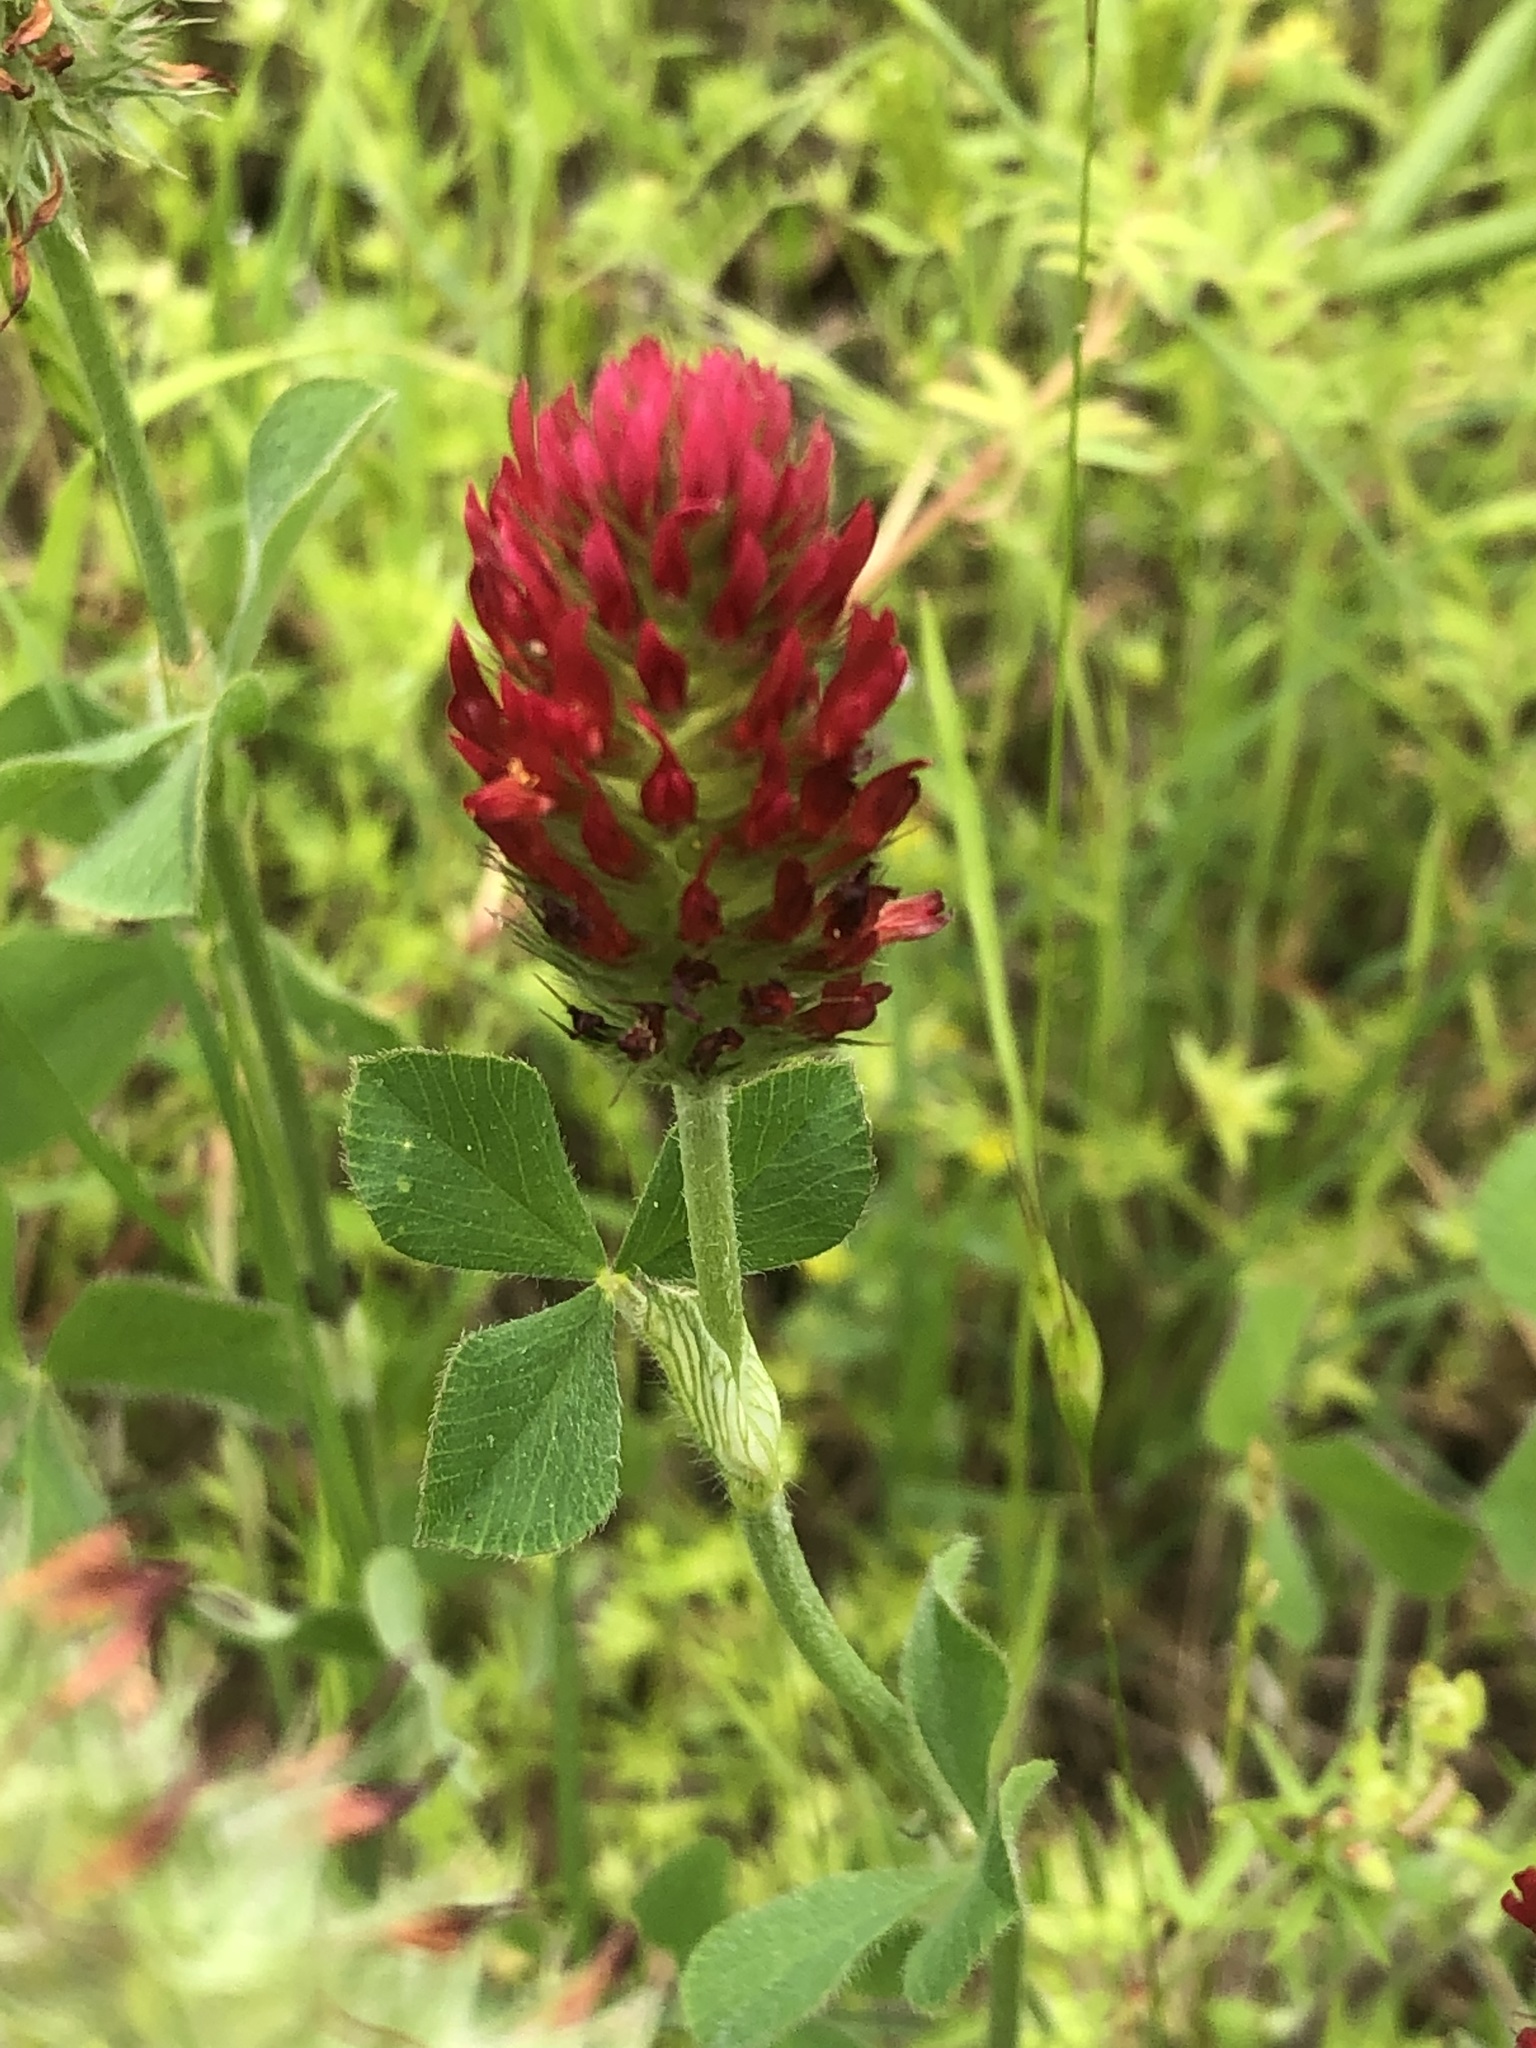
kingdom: Plantae
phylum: Tracheophyta
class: Magnoliopsida
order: Fabales
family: Fabaceae
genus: Trifolium
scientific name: Trifolium incarnatum
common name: Crimson clover
